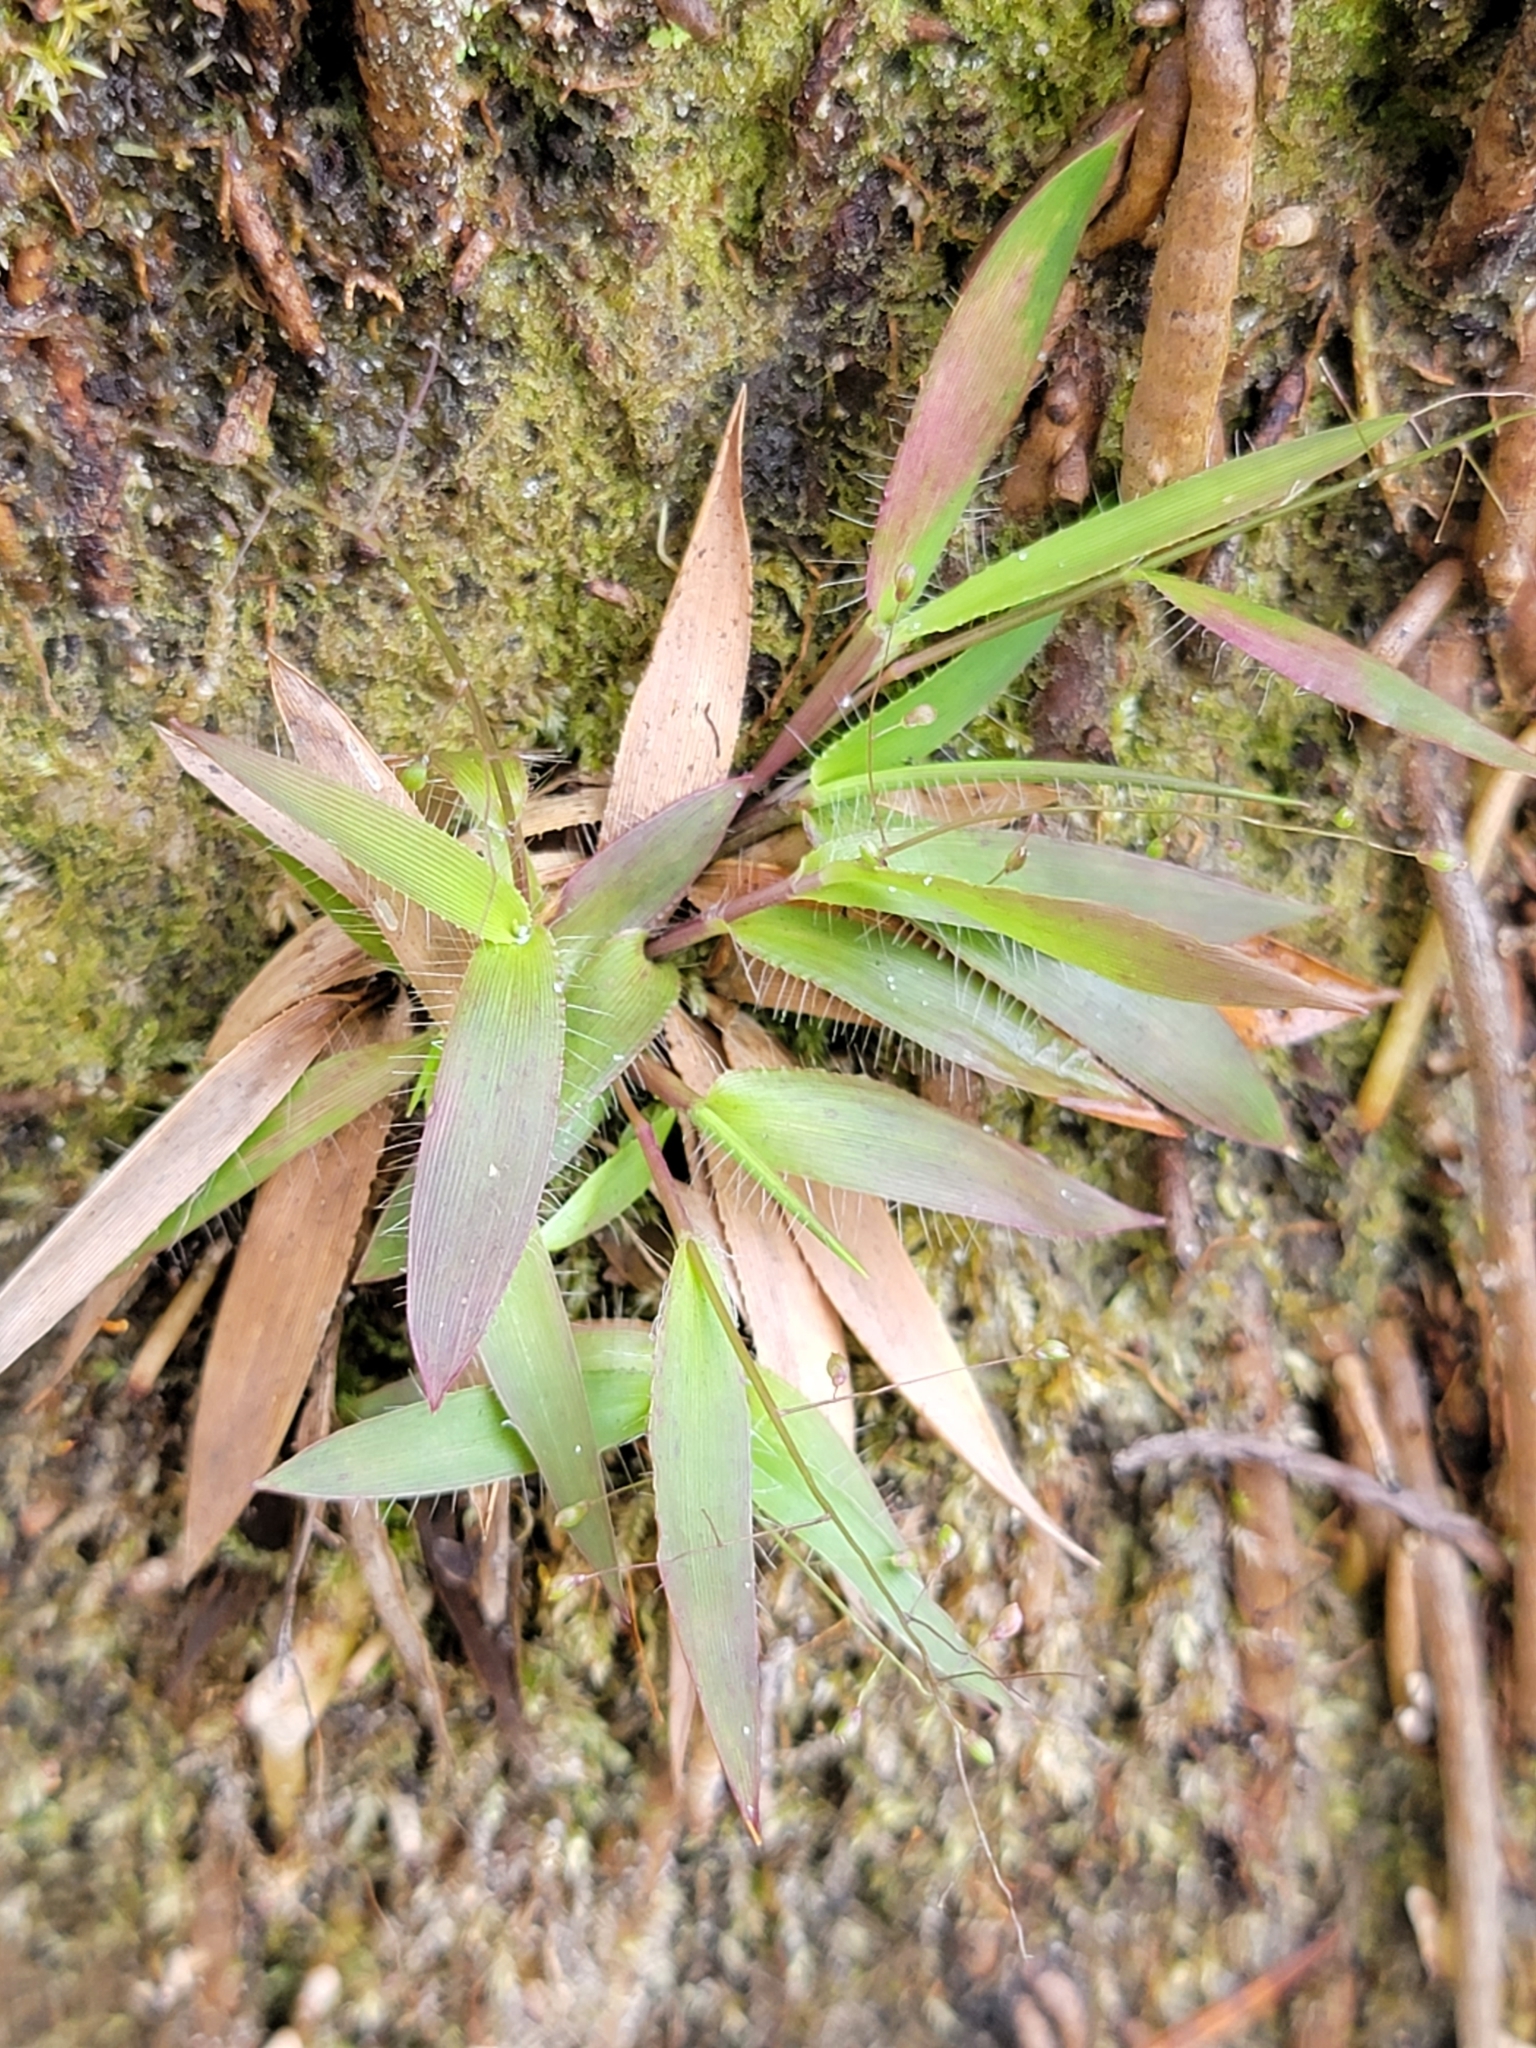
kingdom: Plantae
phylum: Tracheophyta
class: Liliopsida
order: Poales
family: Poaceae
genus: Dichanthelium
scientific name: Dichanthelium strigosum
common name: Cushion-tuft panic grass
